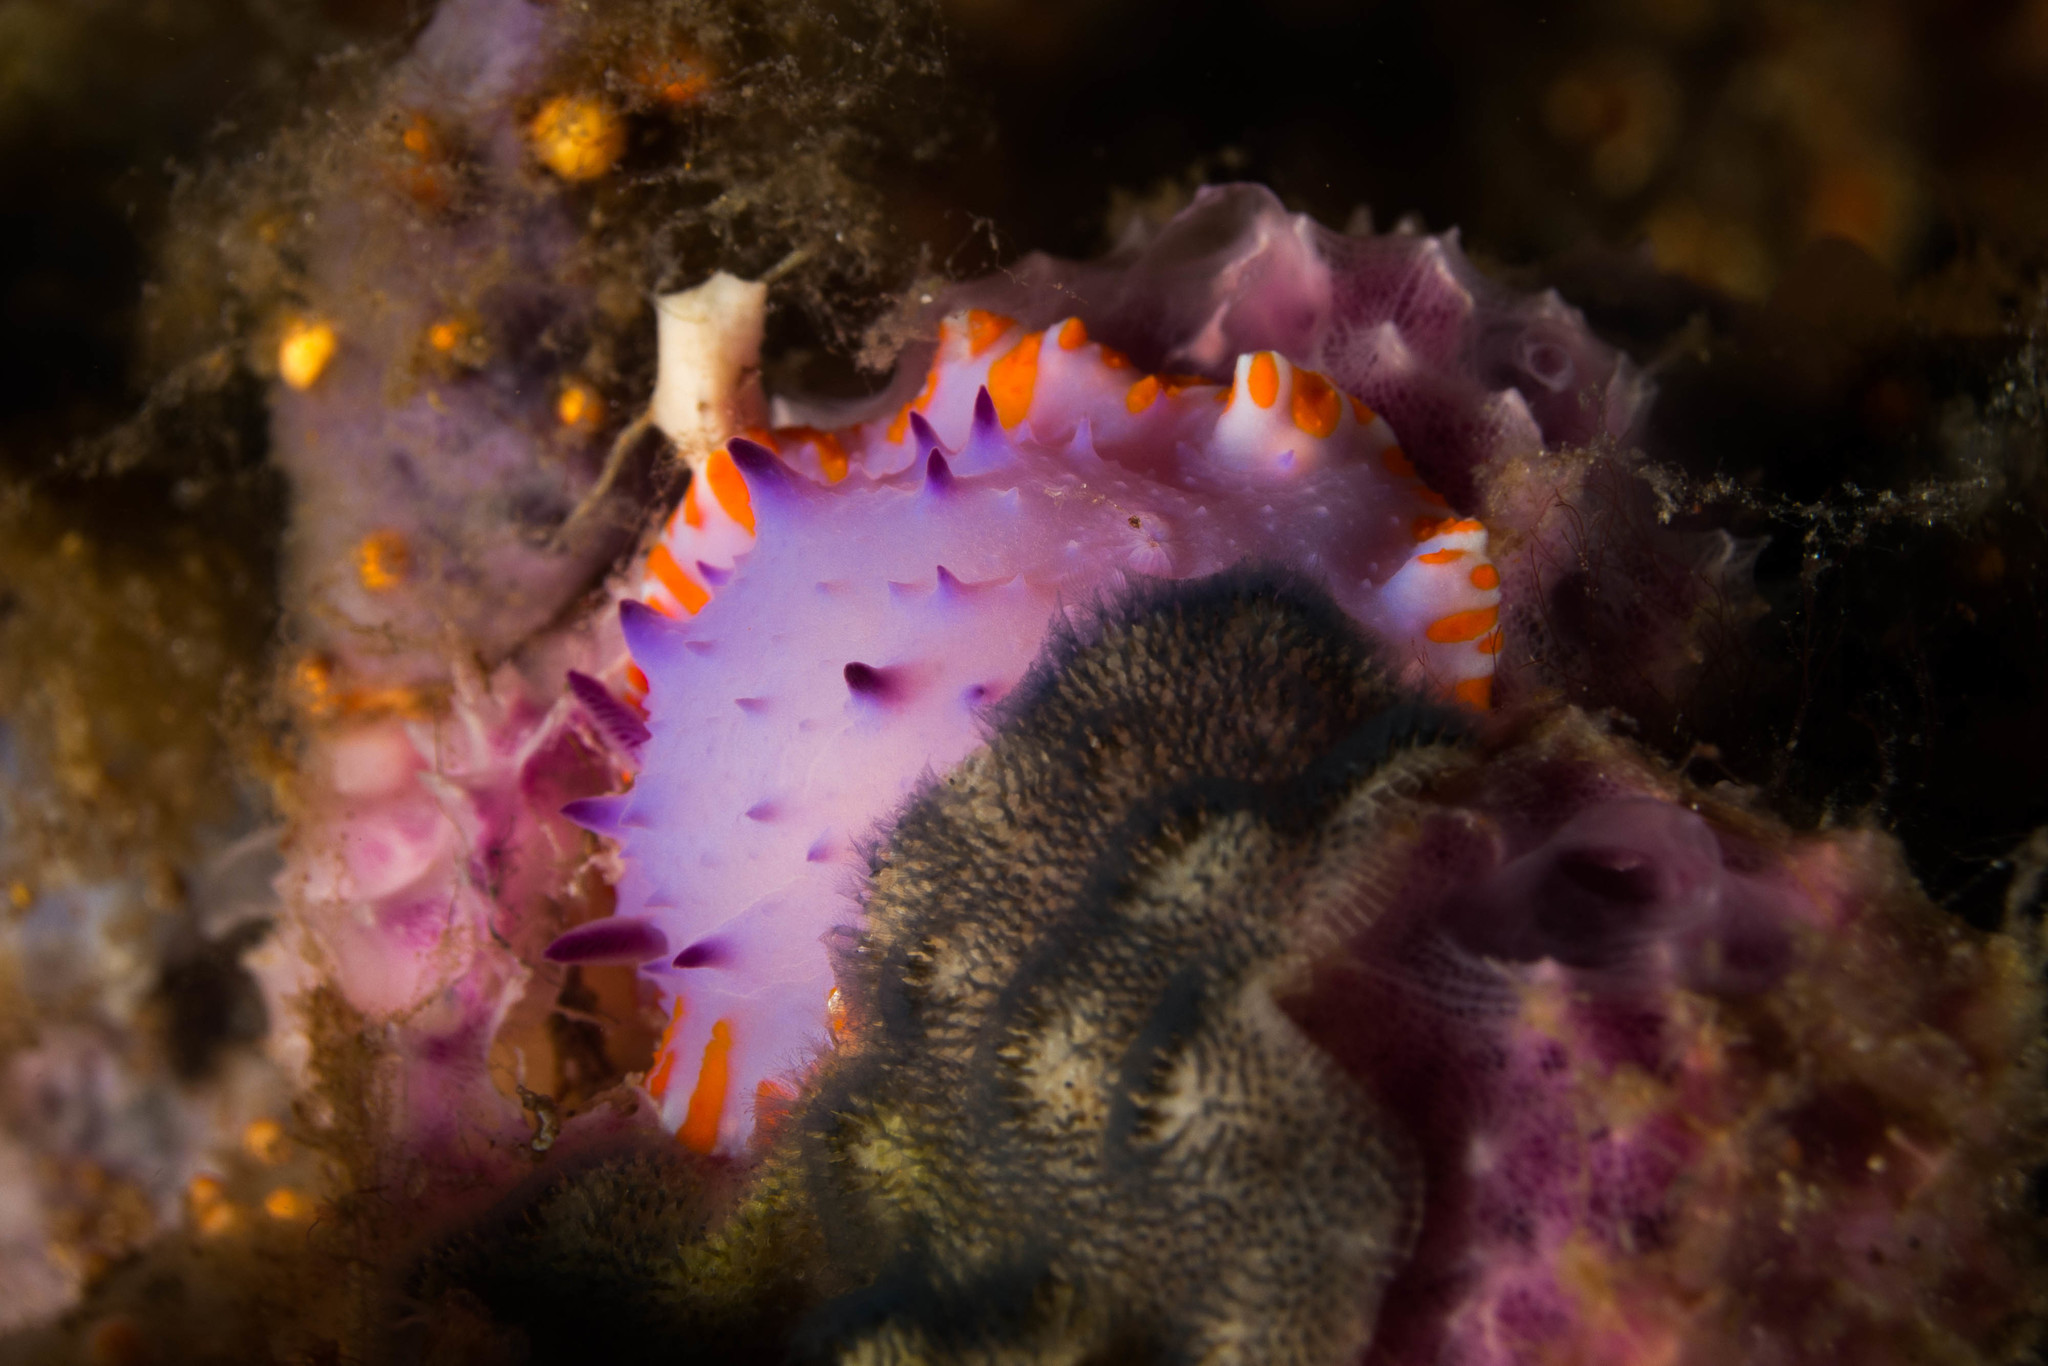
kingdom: Animalia
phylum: Mollusca
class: Gastropoda
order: Nudibranchia
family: Chromodorididae
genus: Mexichromis
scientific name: Mexichromis macropus
